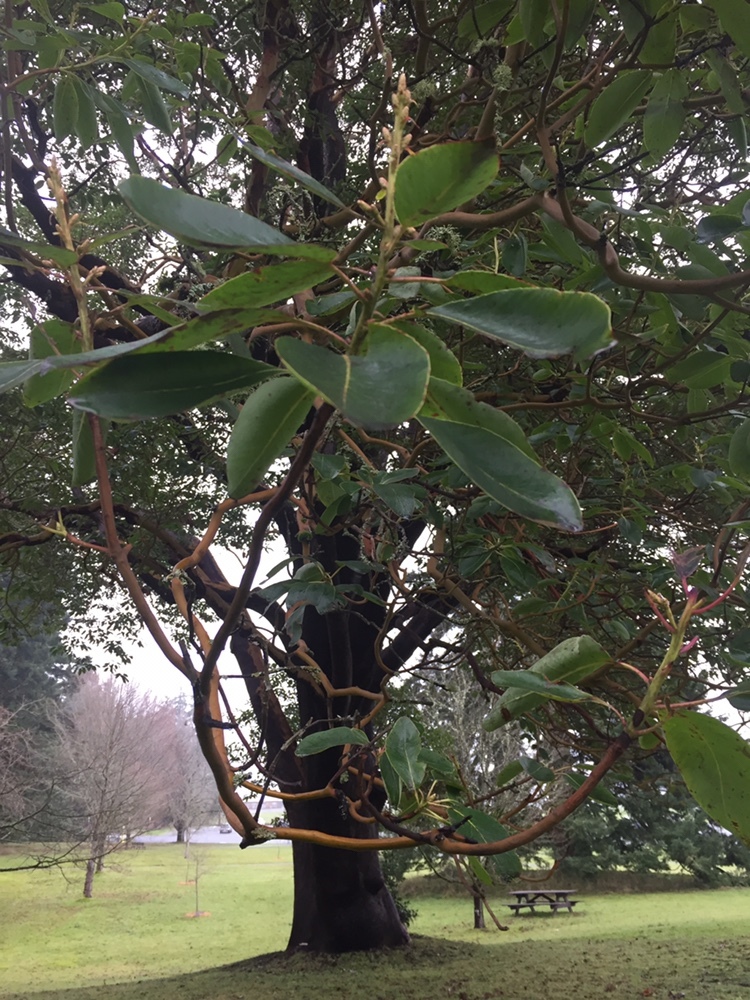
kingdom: Plantae
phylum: Tracheophyta
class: Magnoliopsida
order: Ericales
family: Ericaceae
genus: Arbutus
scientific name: Arbutus menziesii
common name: Pacific madrone
